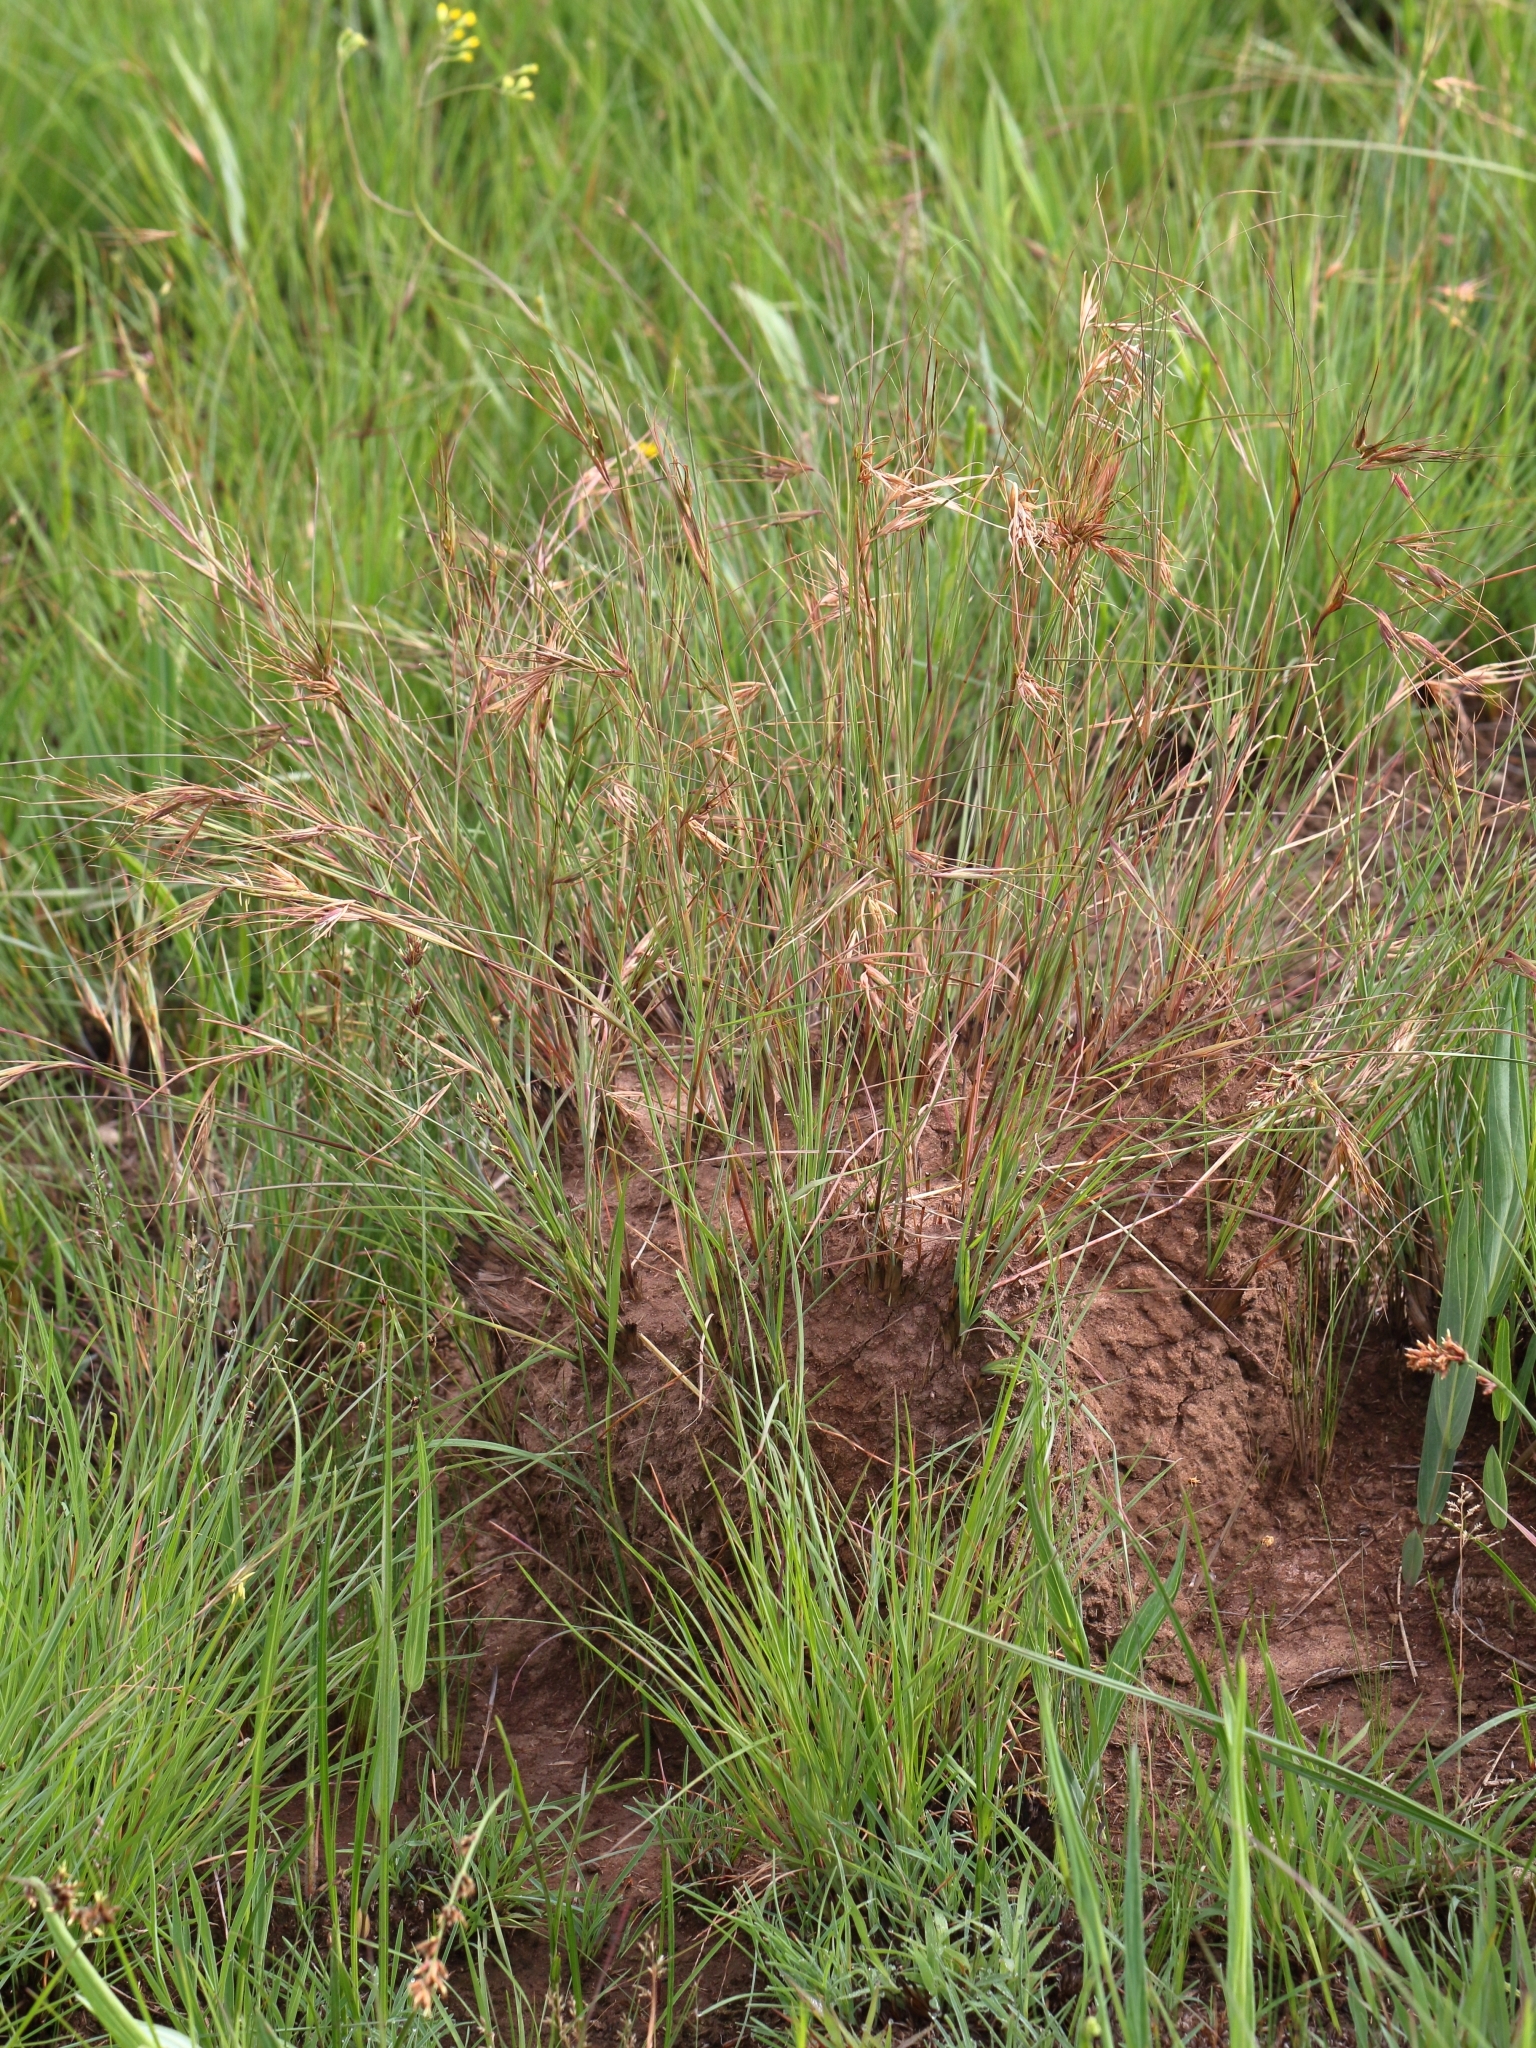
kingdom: Plantae
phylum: Tracheophyta
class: Liliopsida
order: Poales
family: Poaceae
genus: Themeda
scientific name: Themeda triandra
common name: Kangaroo grass
